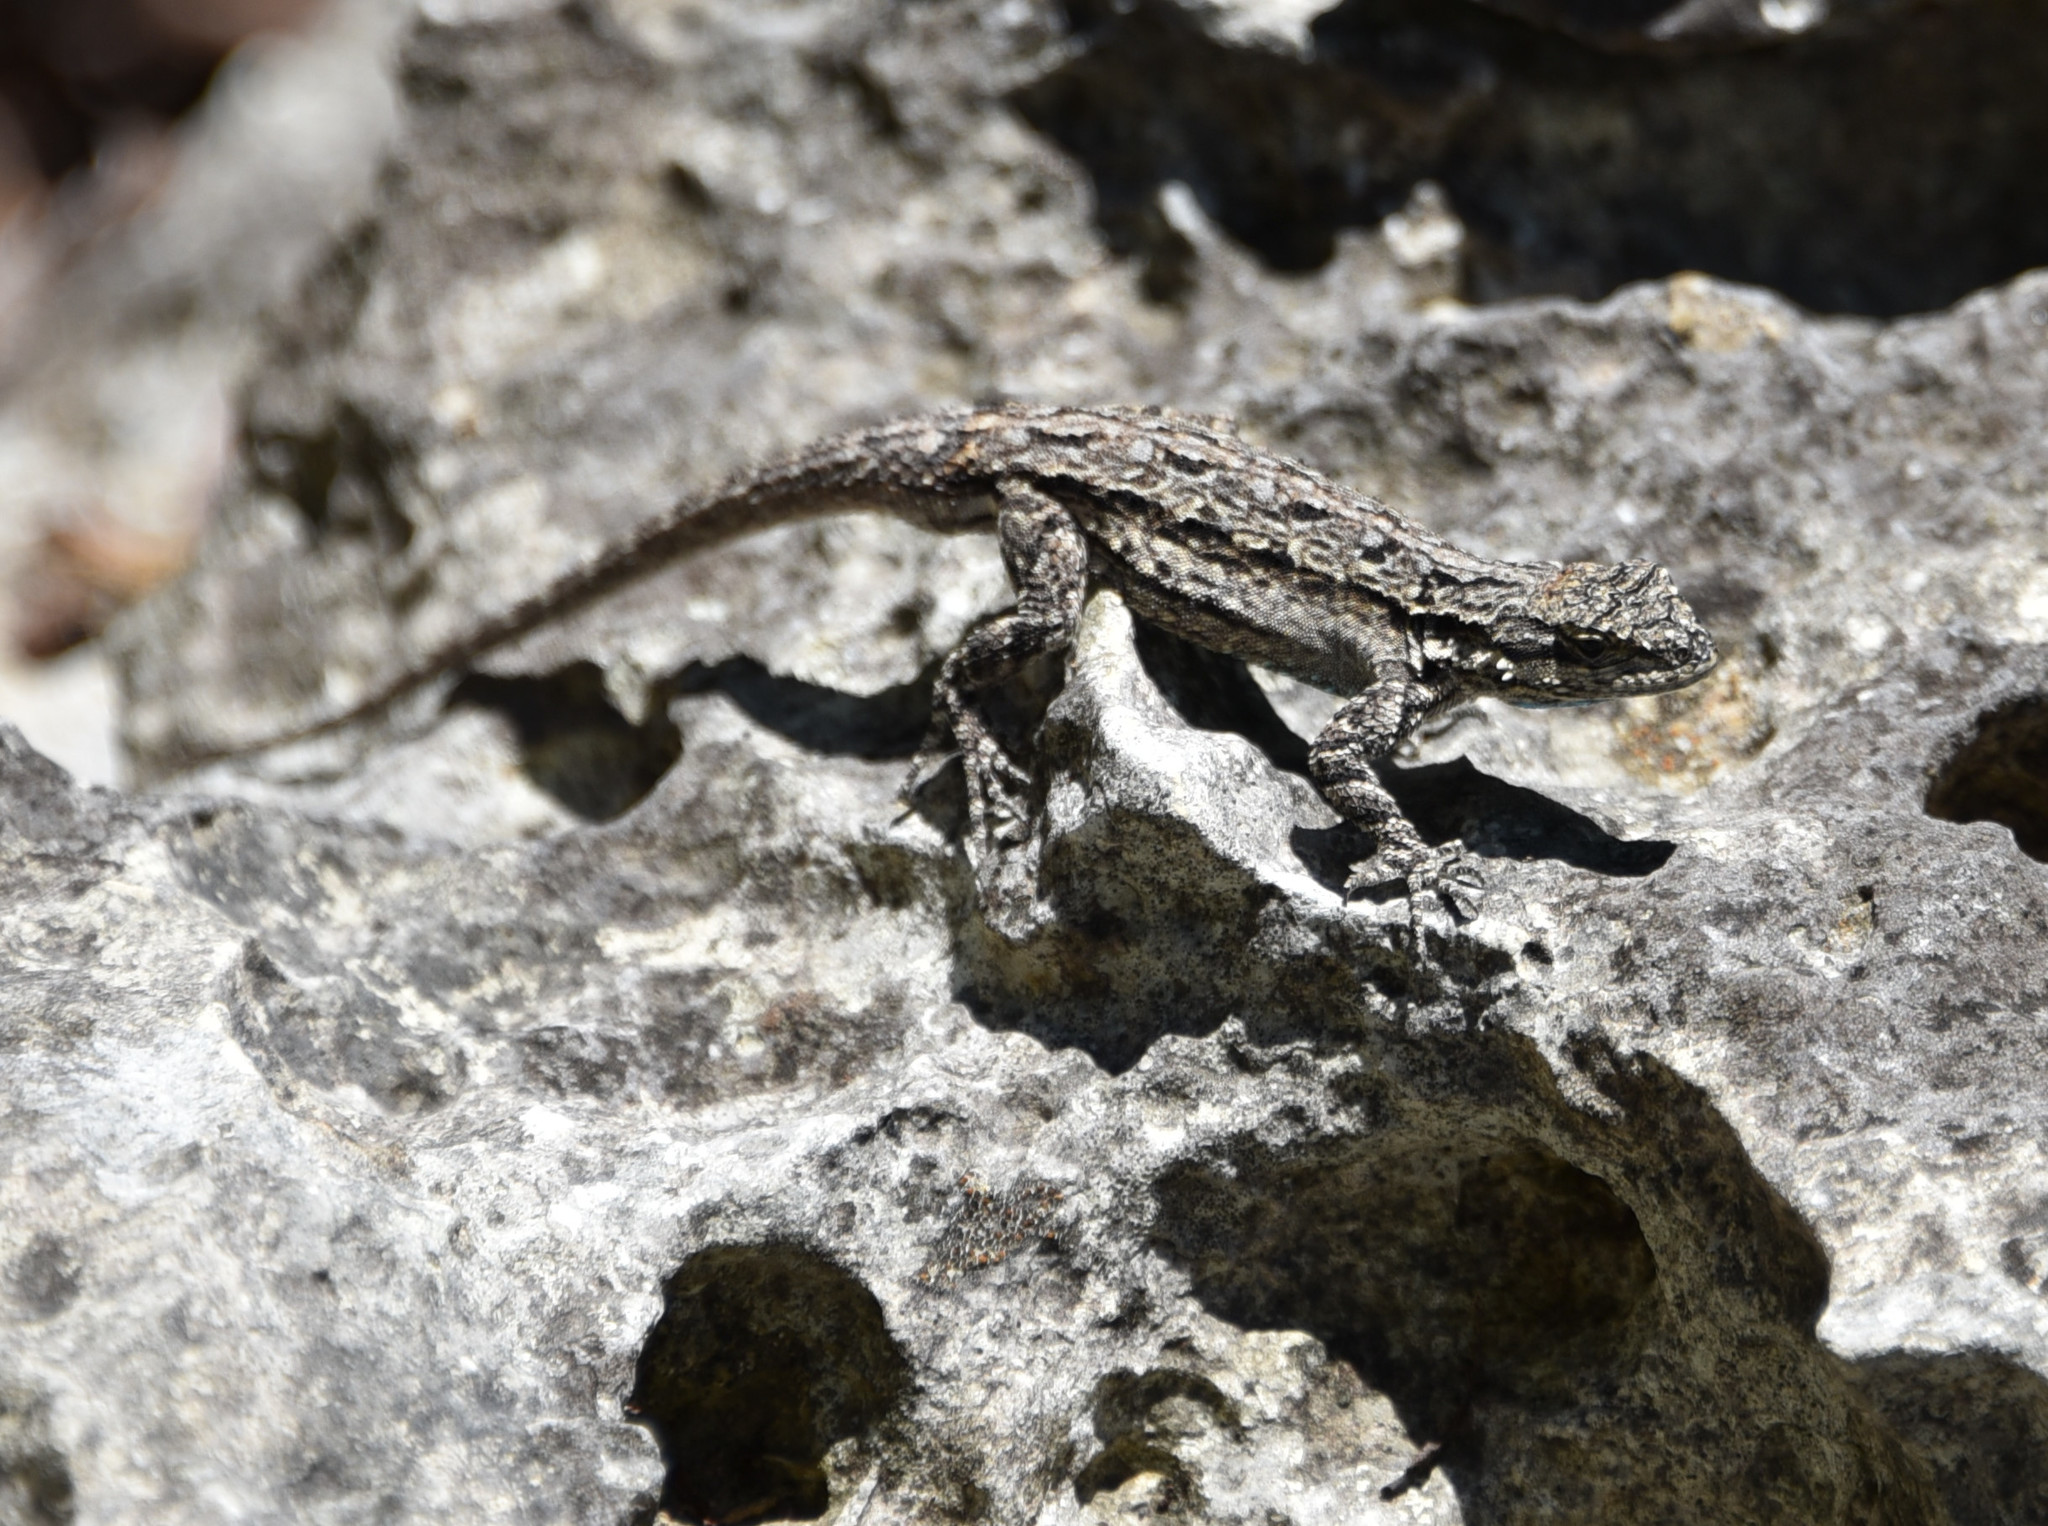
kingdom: Animalia
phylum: Chordata
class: Squamata
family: Phrynosomatidae
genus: Urosaurus
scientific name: Urosaurus ornatus
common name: Ornate tree lizard
